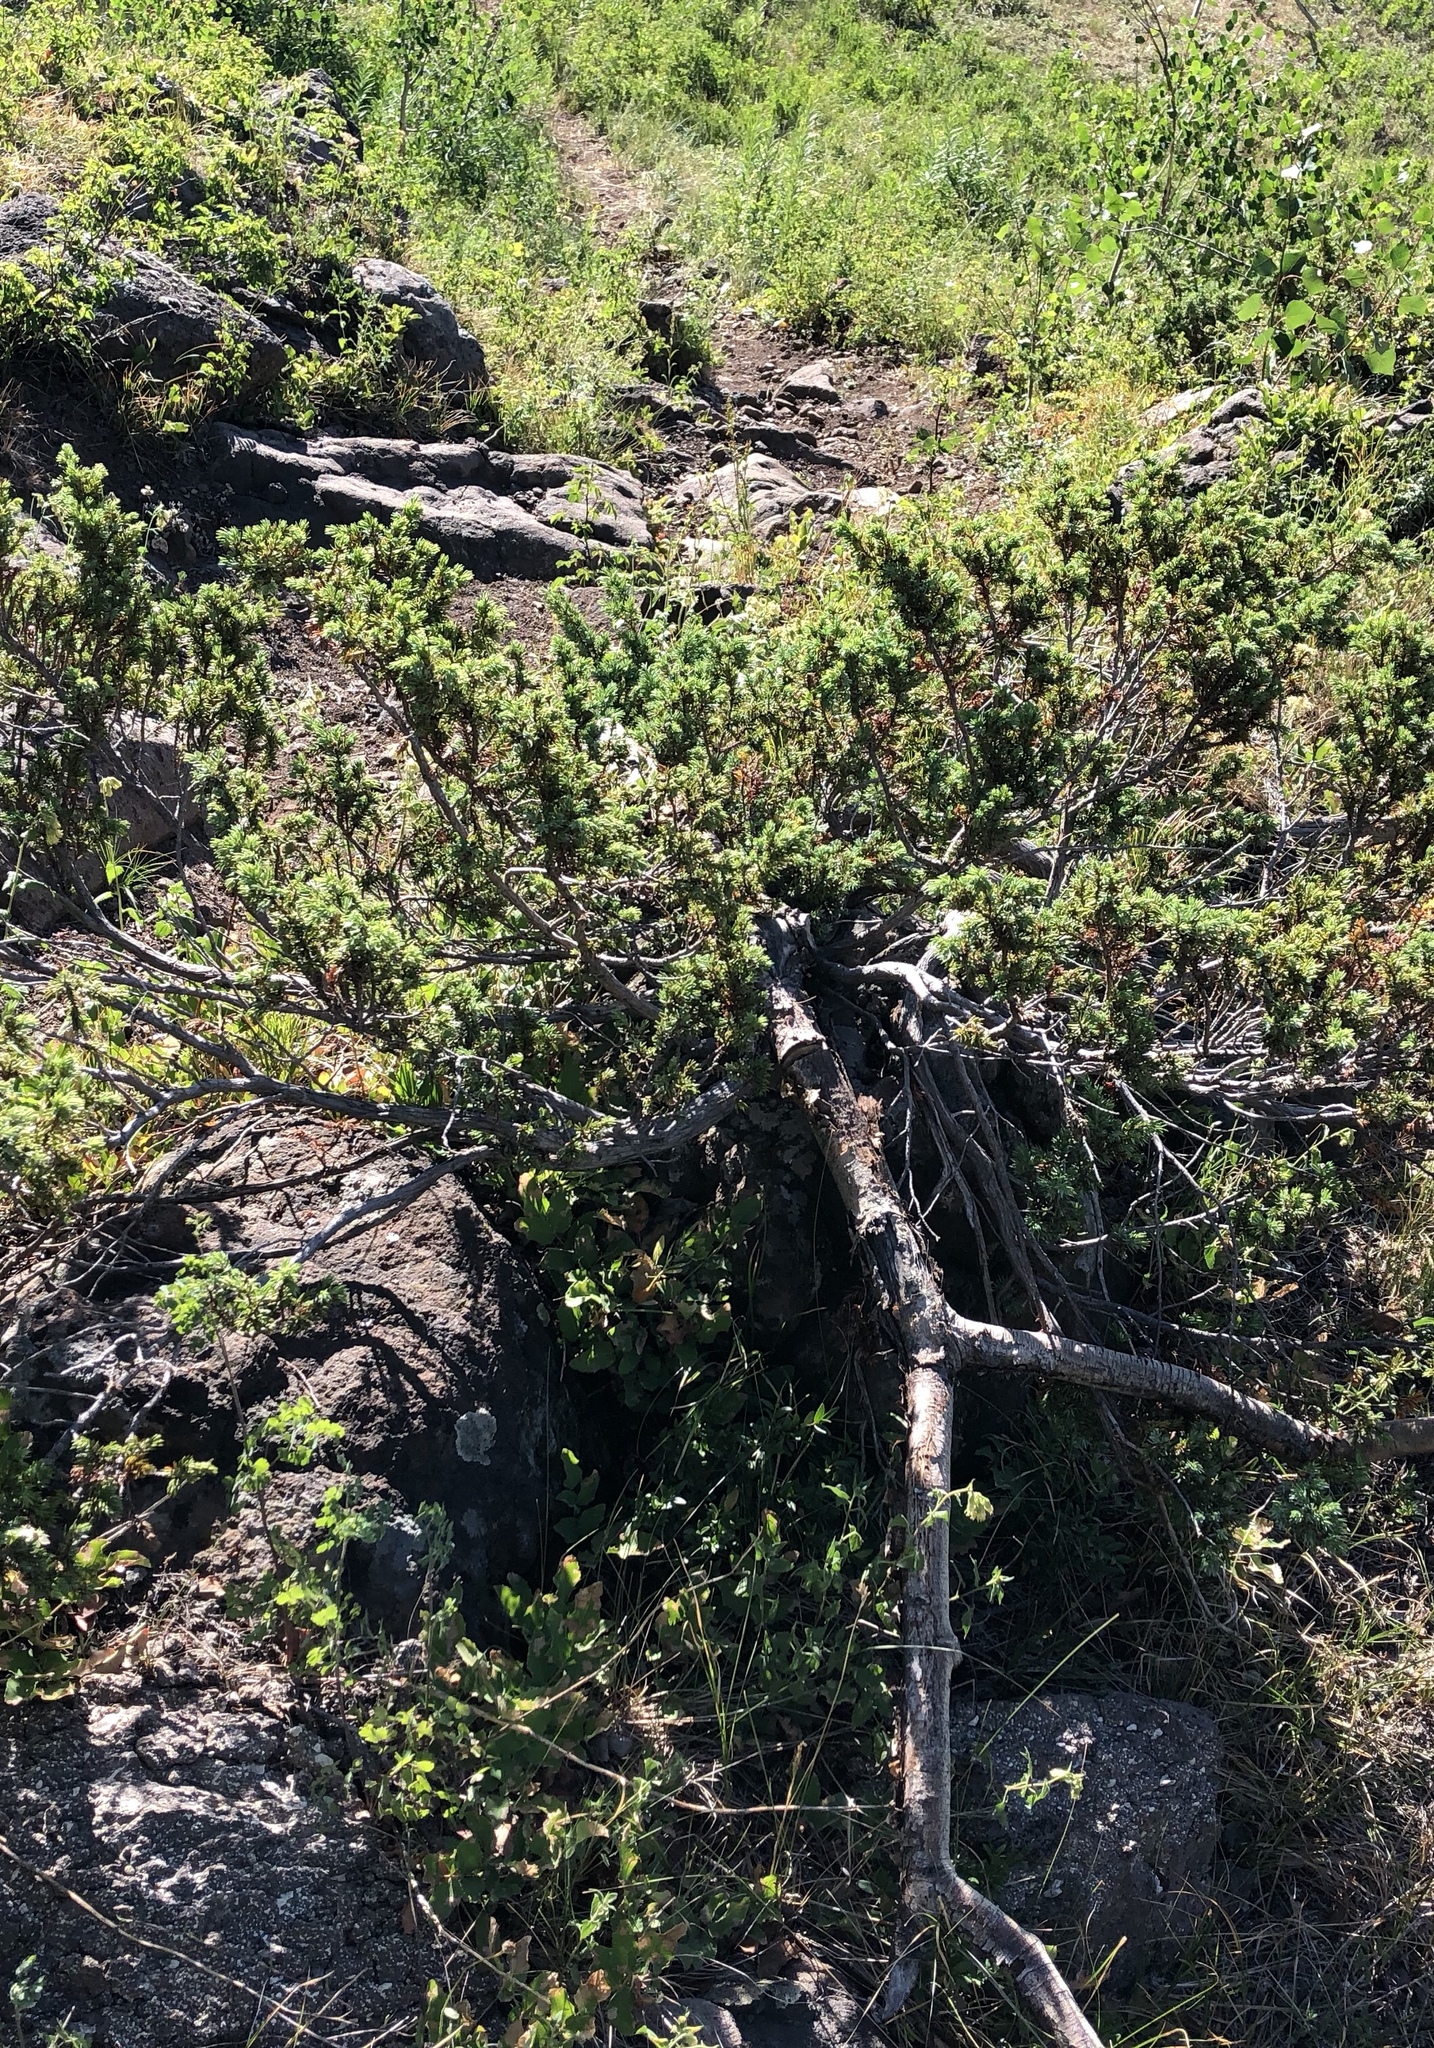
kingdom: Plantae
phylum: Tracheophyta
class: Pinopsida
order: Pinales
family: Cupressaceae
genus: Juniperus
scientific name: Juniperus communis
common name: Common juniper
